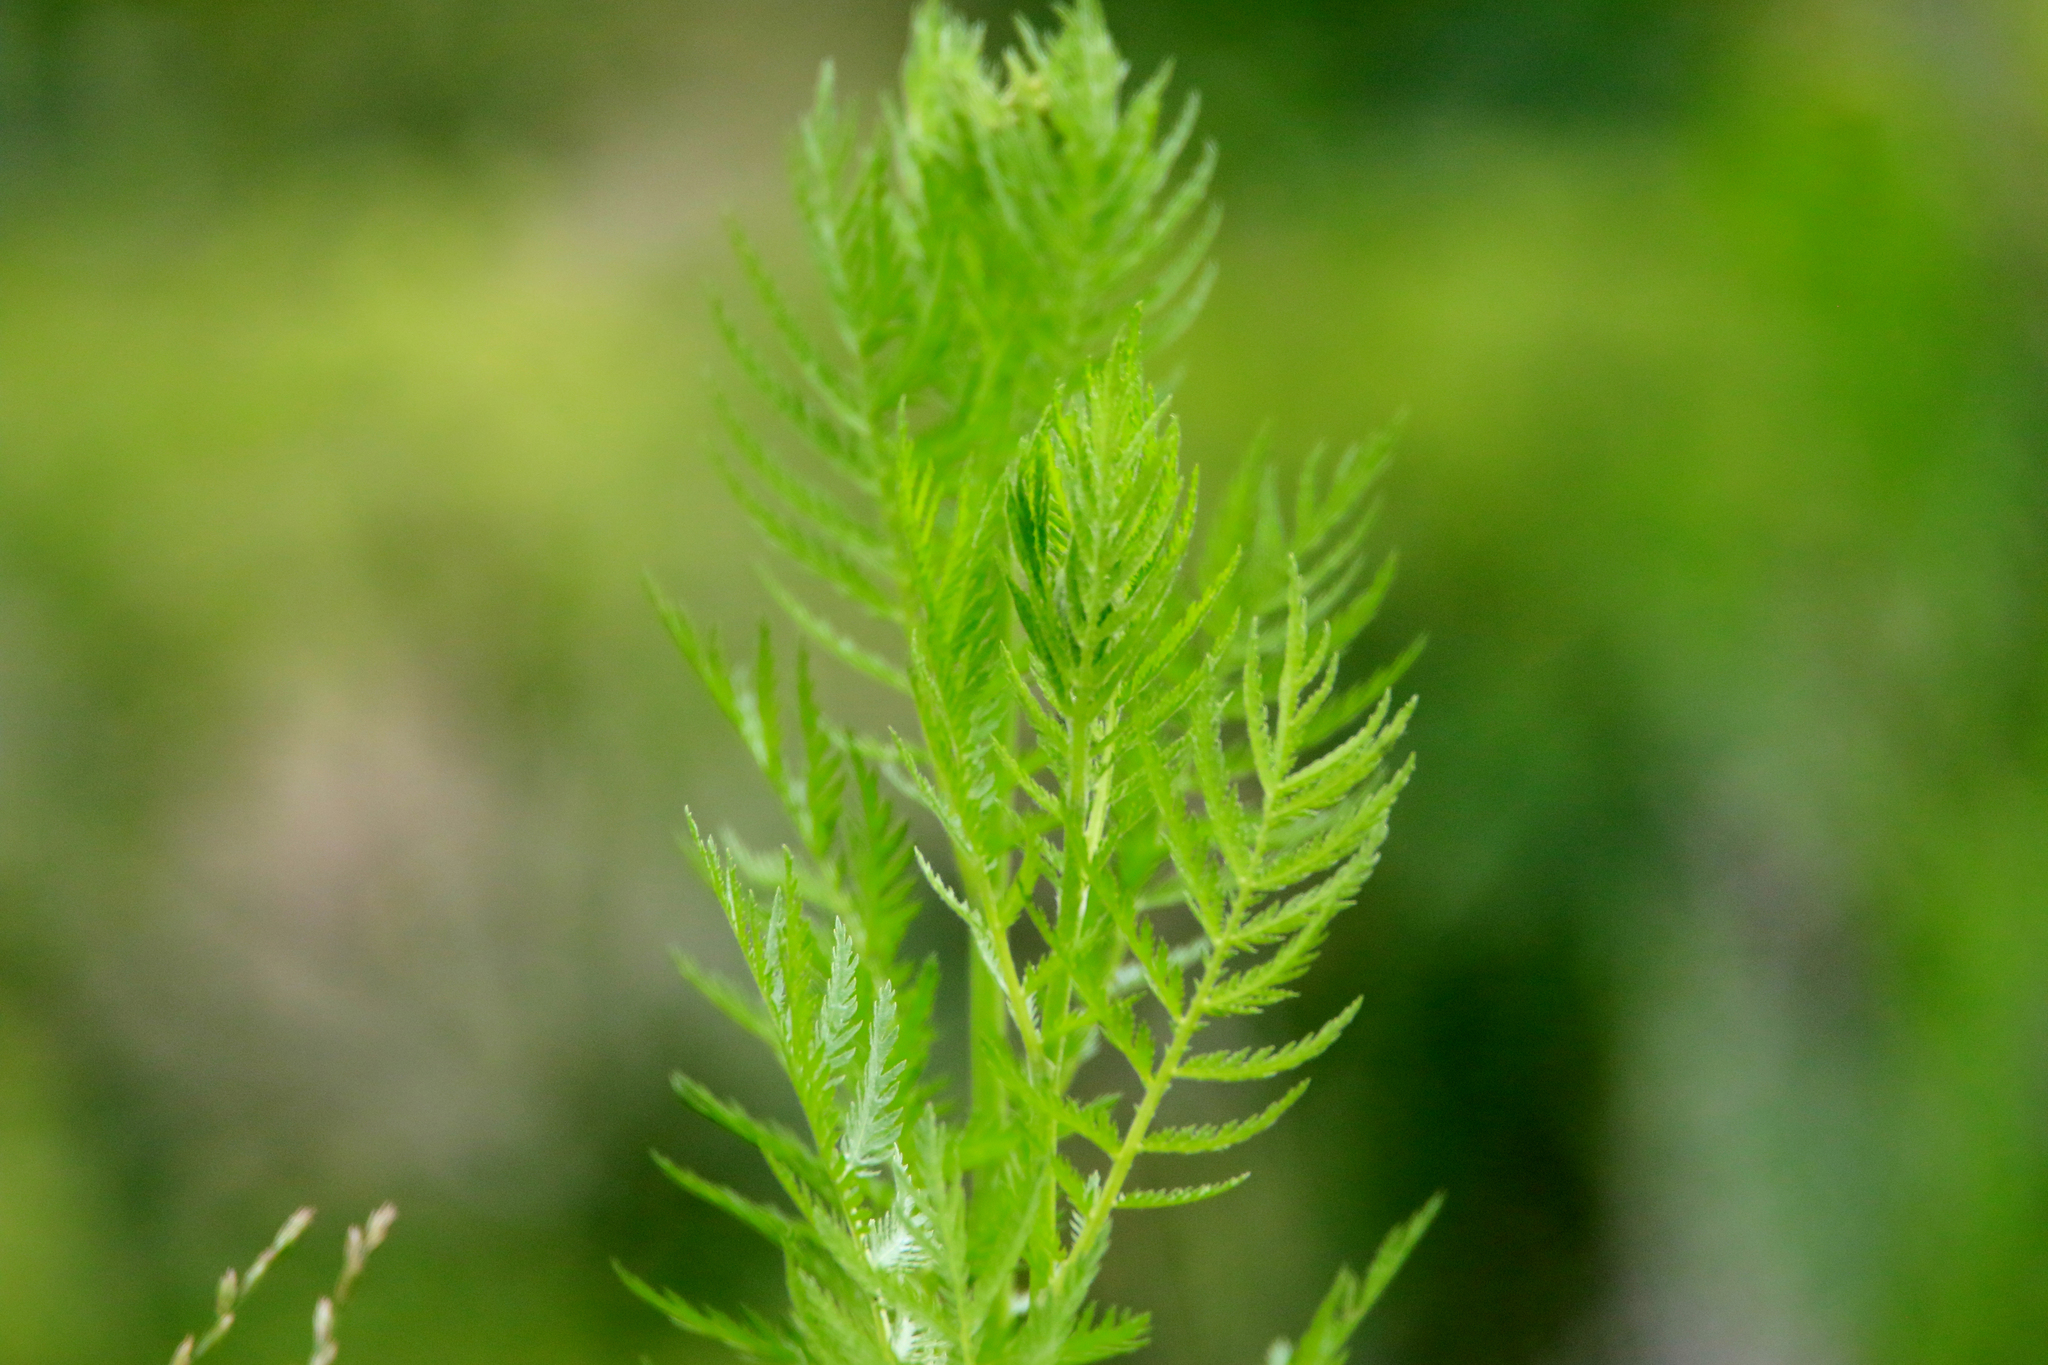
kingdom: Plantae
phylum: Tracheophyta
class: Magnoliopsida
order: Asterales
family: Asteraceae
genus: Tanacetum
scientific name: Tanacetum vulgare
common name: Common tansy
